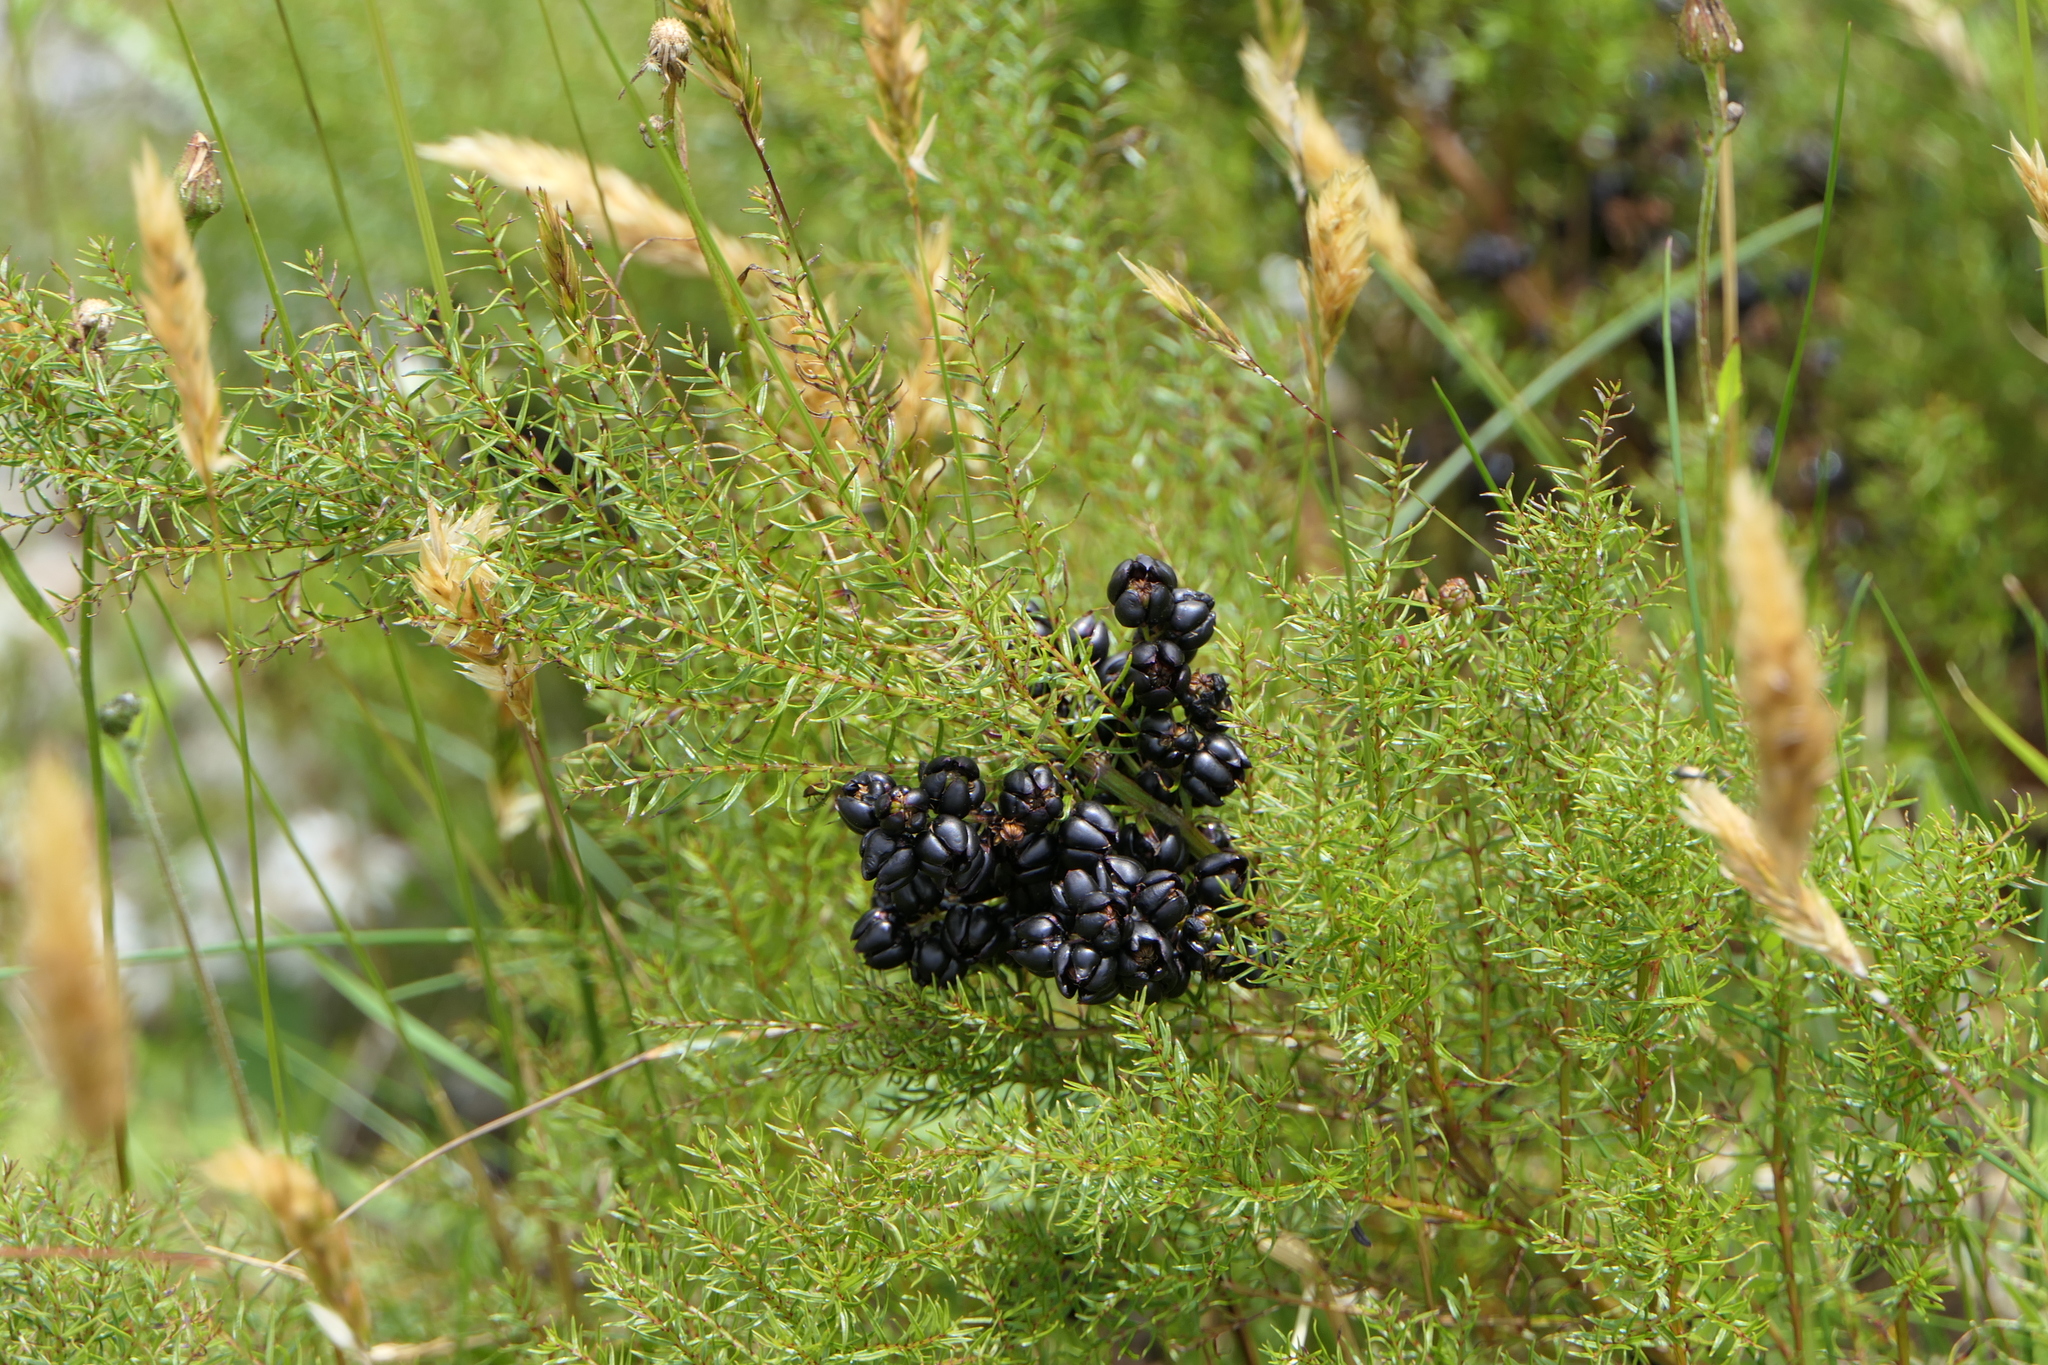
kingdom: Plantae
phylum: Tracheophyta
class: Magnoliopsida
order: Cucurbitales
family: Coriariaceae
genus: Coriaria
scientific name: Coriaria angustissima
